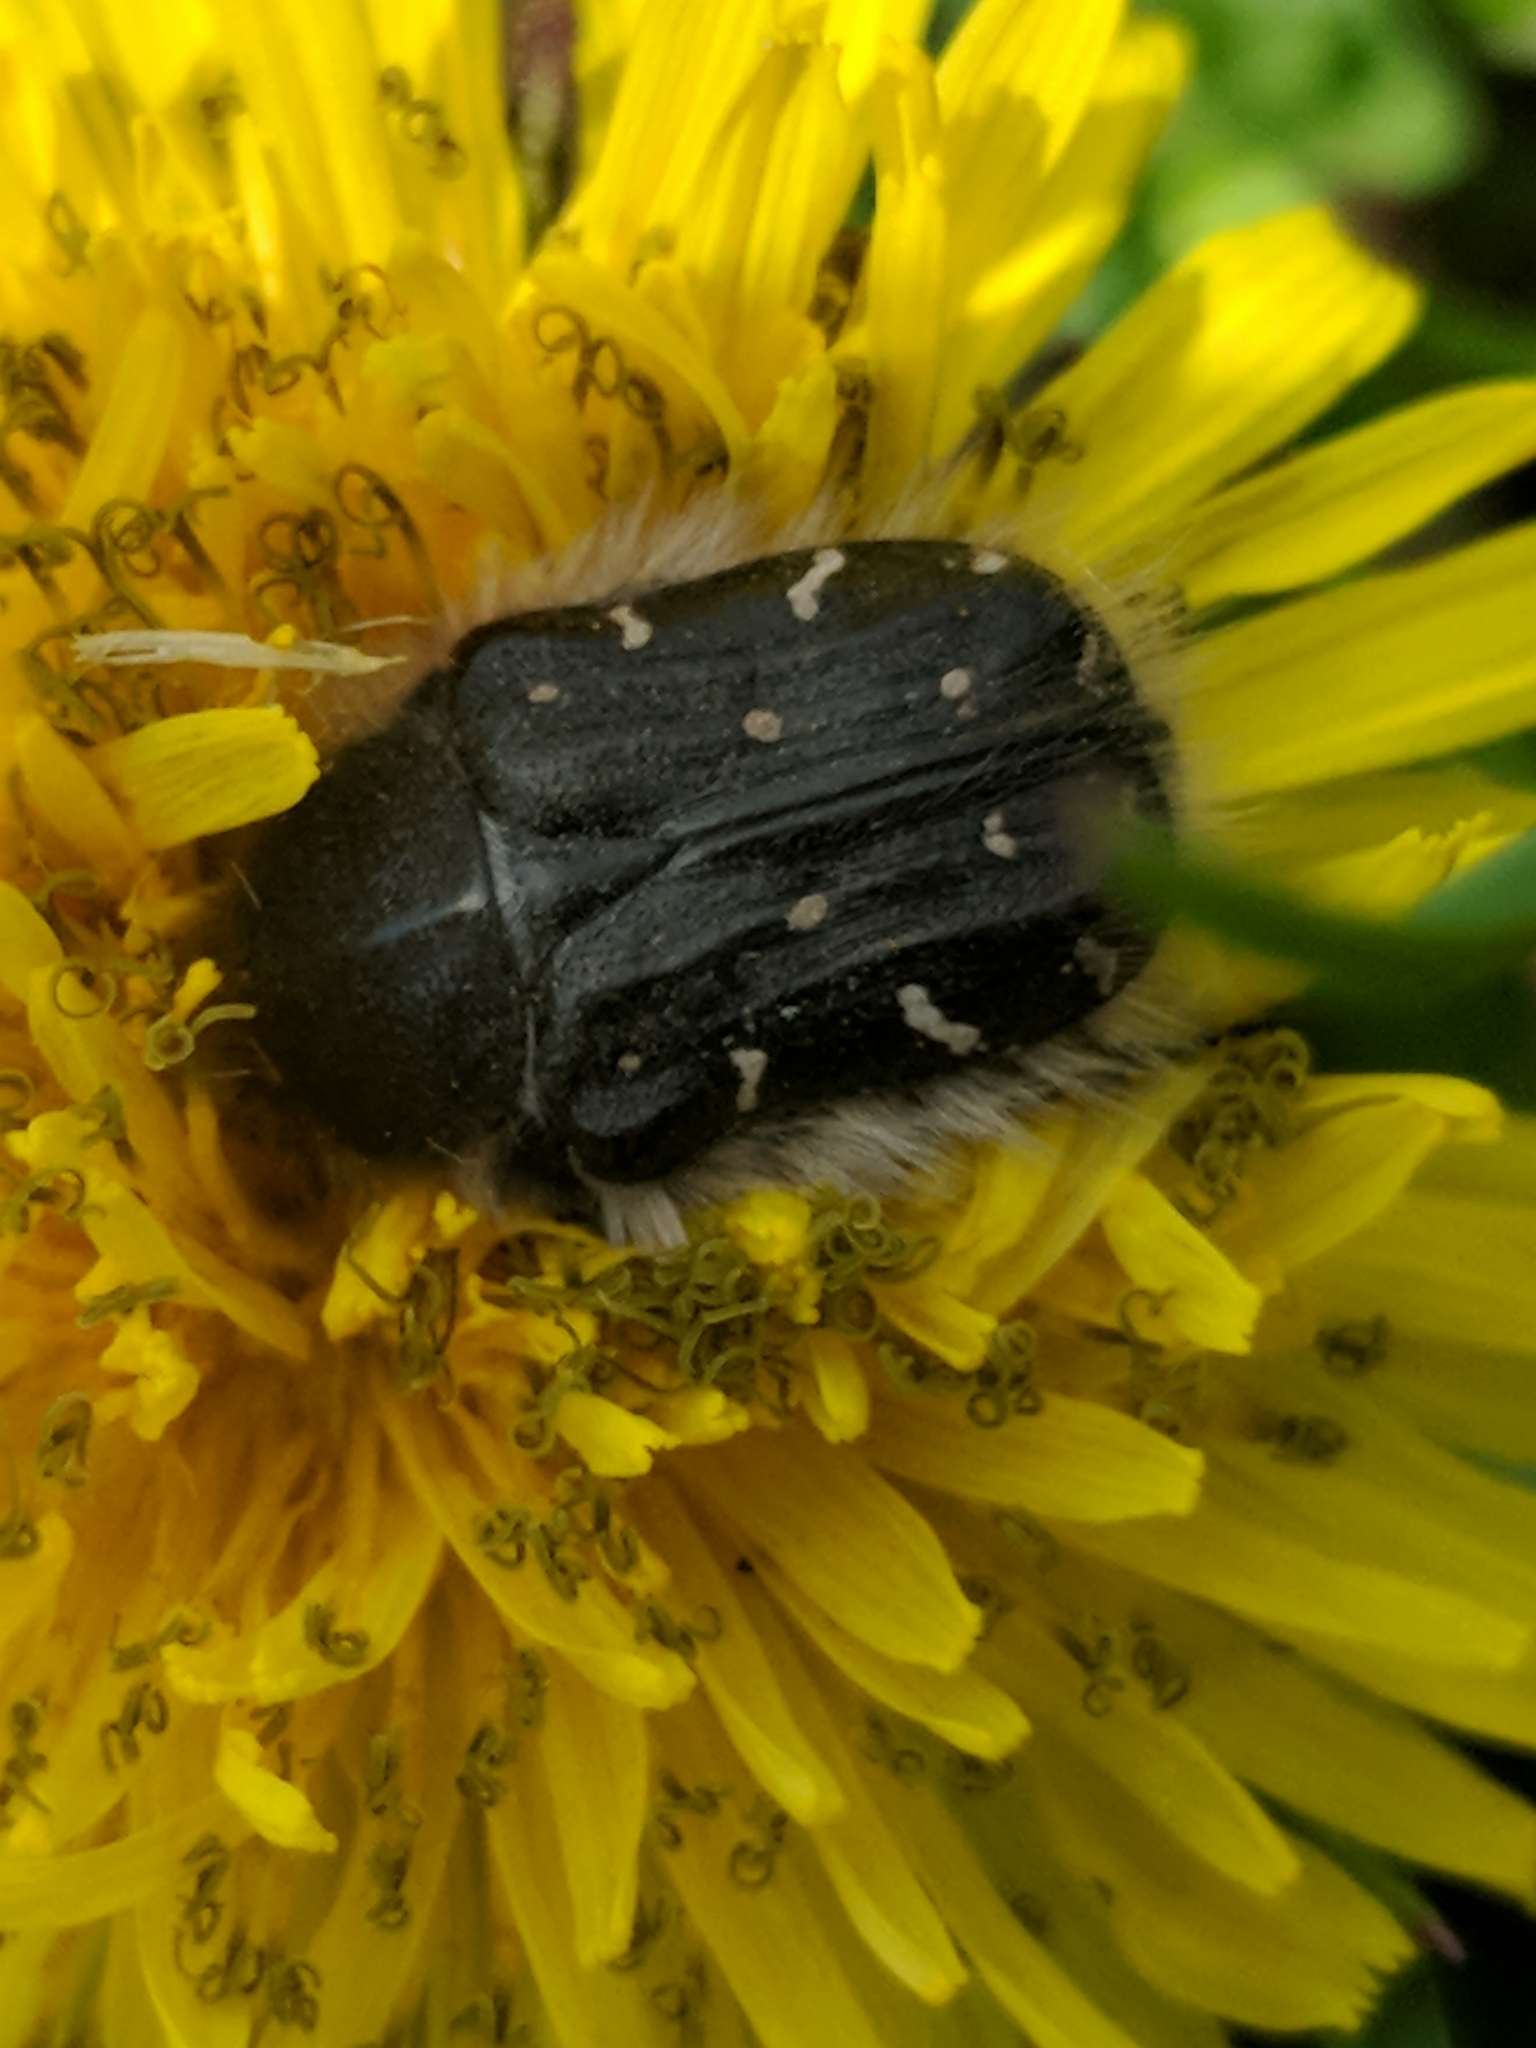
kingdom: Animalia
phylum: Arthropoda
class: Insecta
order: Coleoptera
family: Scarabaeidae
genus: Tropinota
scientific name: Tropinota hirta
